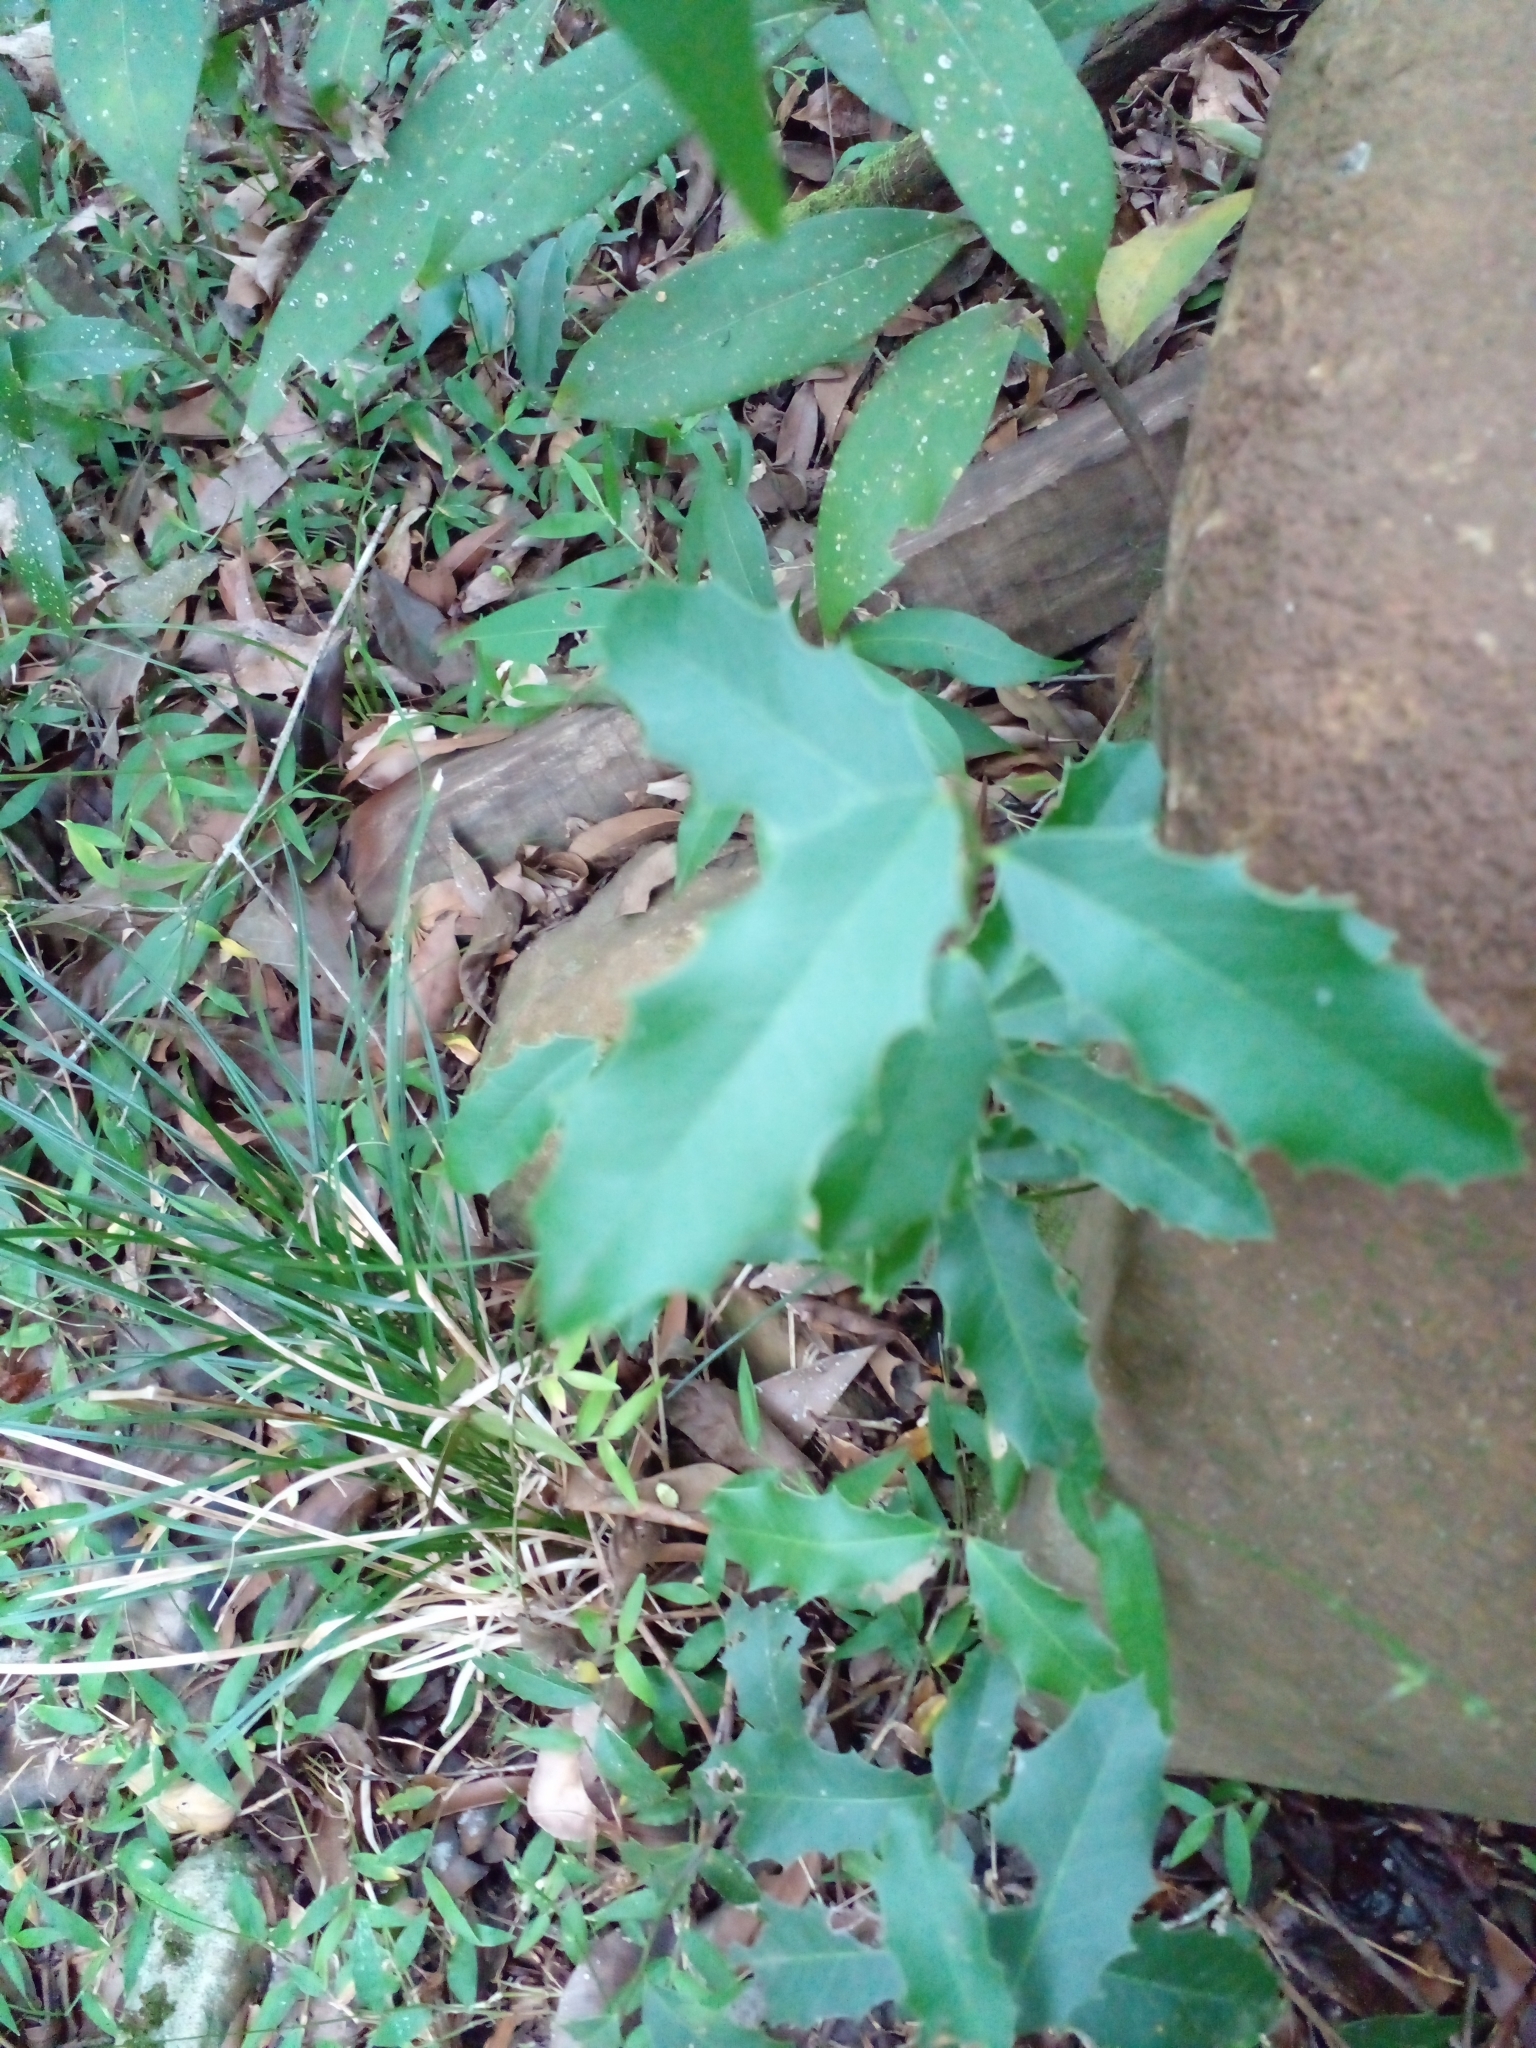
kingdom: Plantae
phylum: Tracheophyta
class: Magnoliopsida
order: Celastrales
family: Celastraceae
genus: Monteverdia
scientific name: Monteverdia
